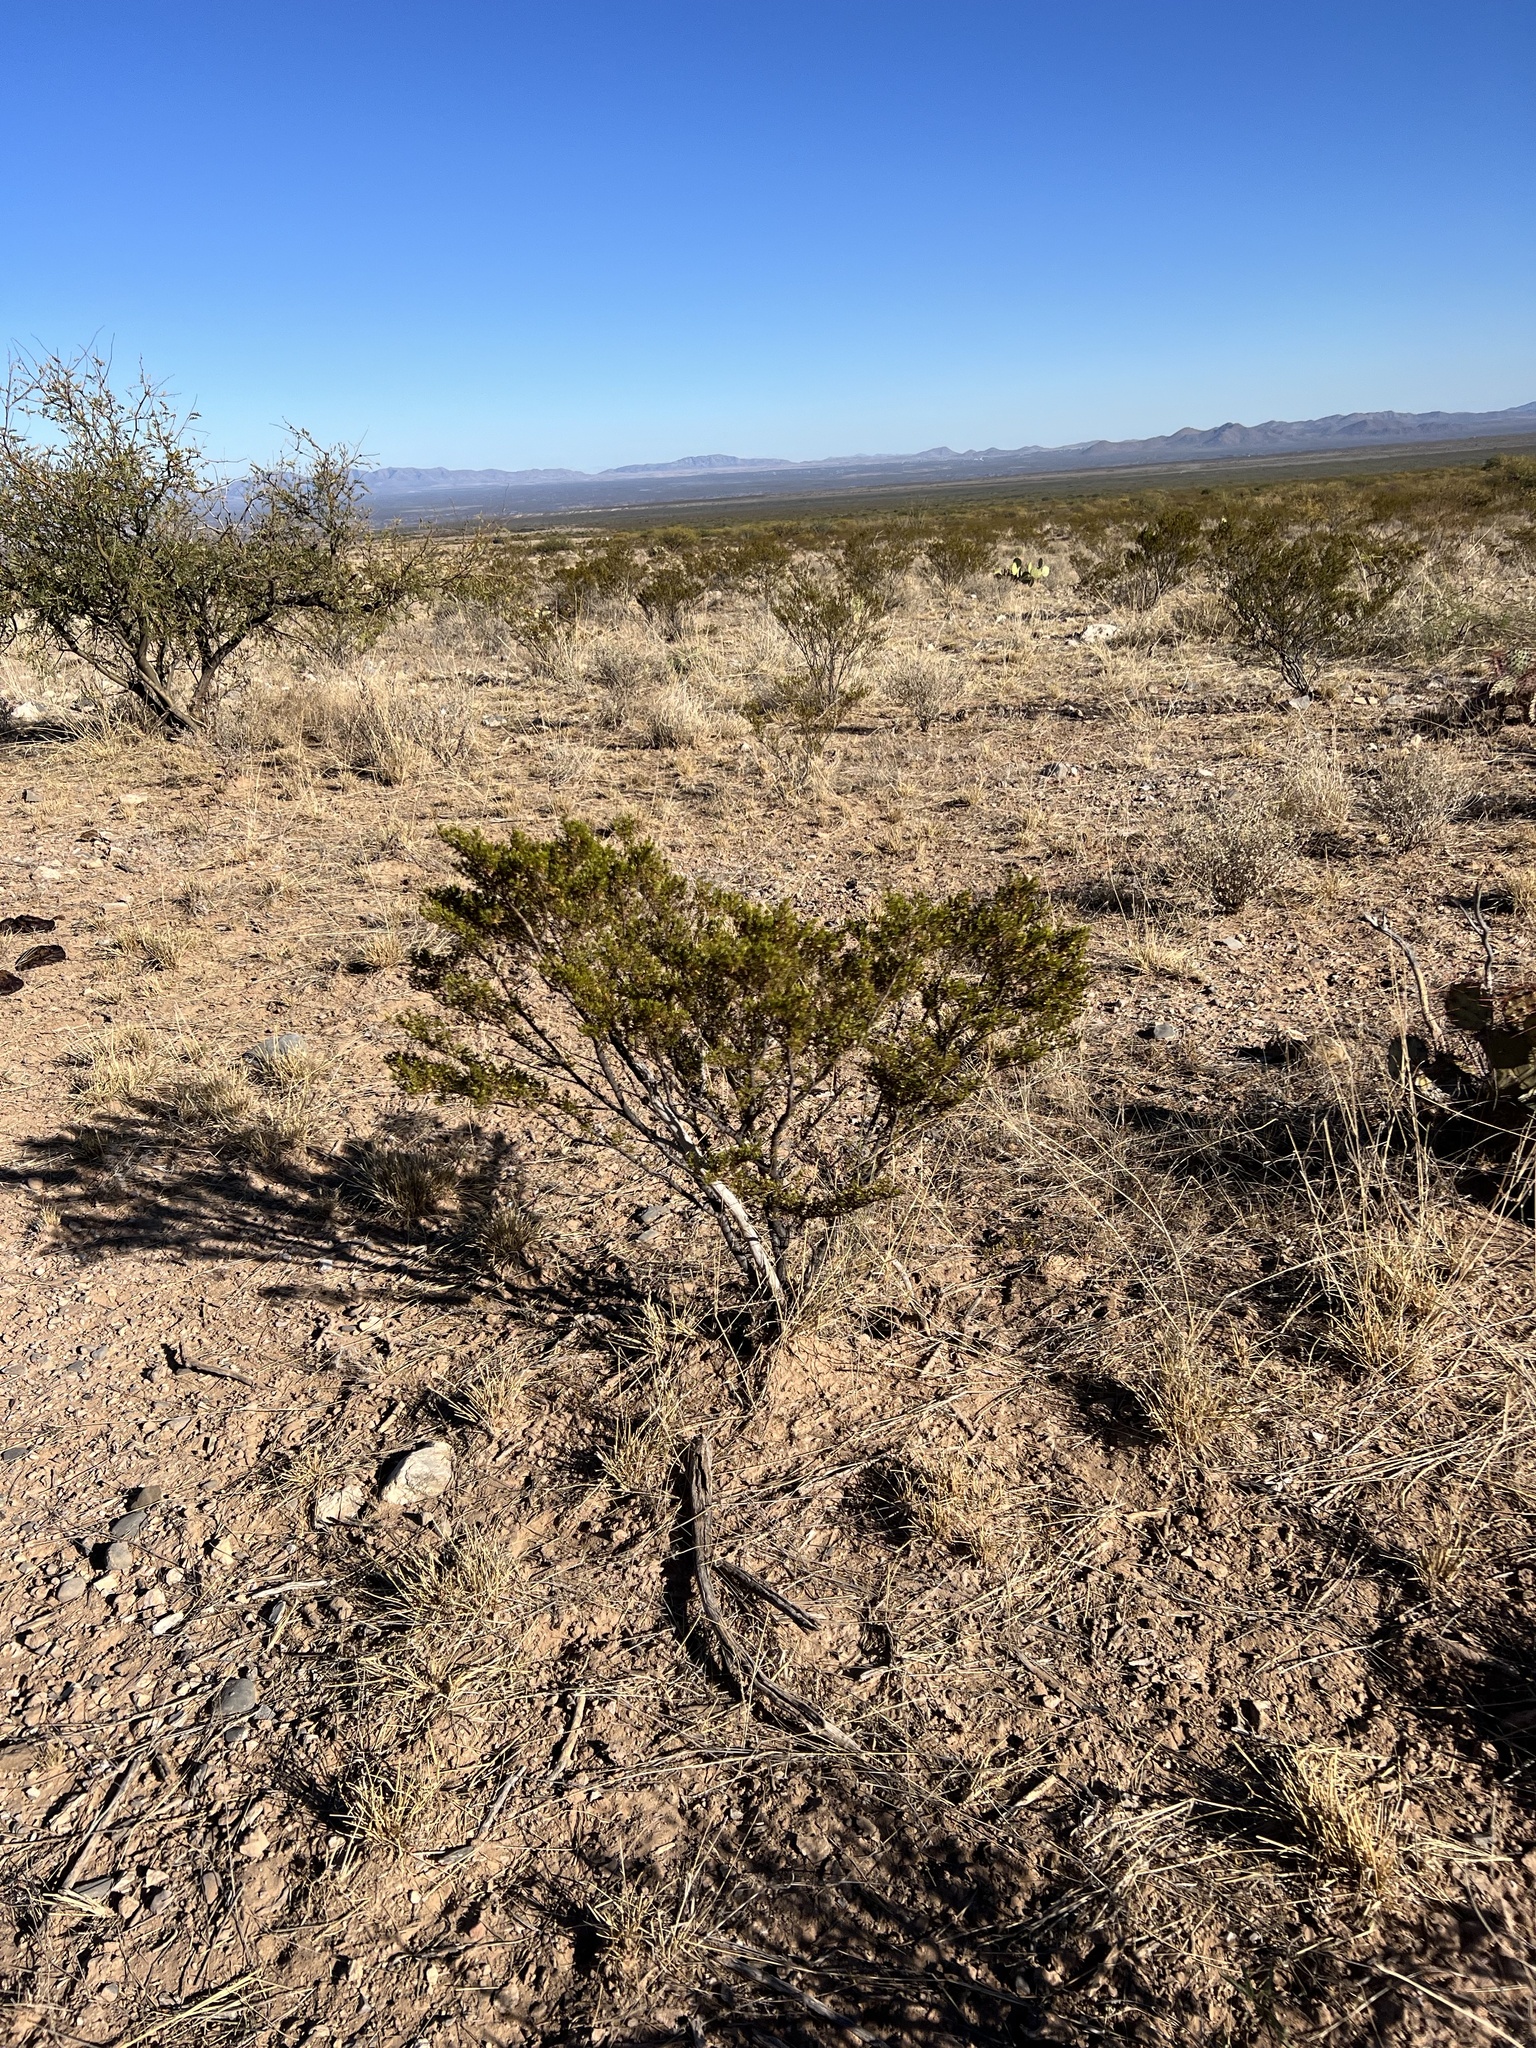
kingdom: Plantae
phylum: Tracheophyta
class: Magnoliopsida
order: Zygophyllales
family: Zygophyllaceae
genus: Larrea
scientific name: Larrea tridentata
